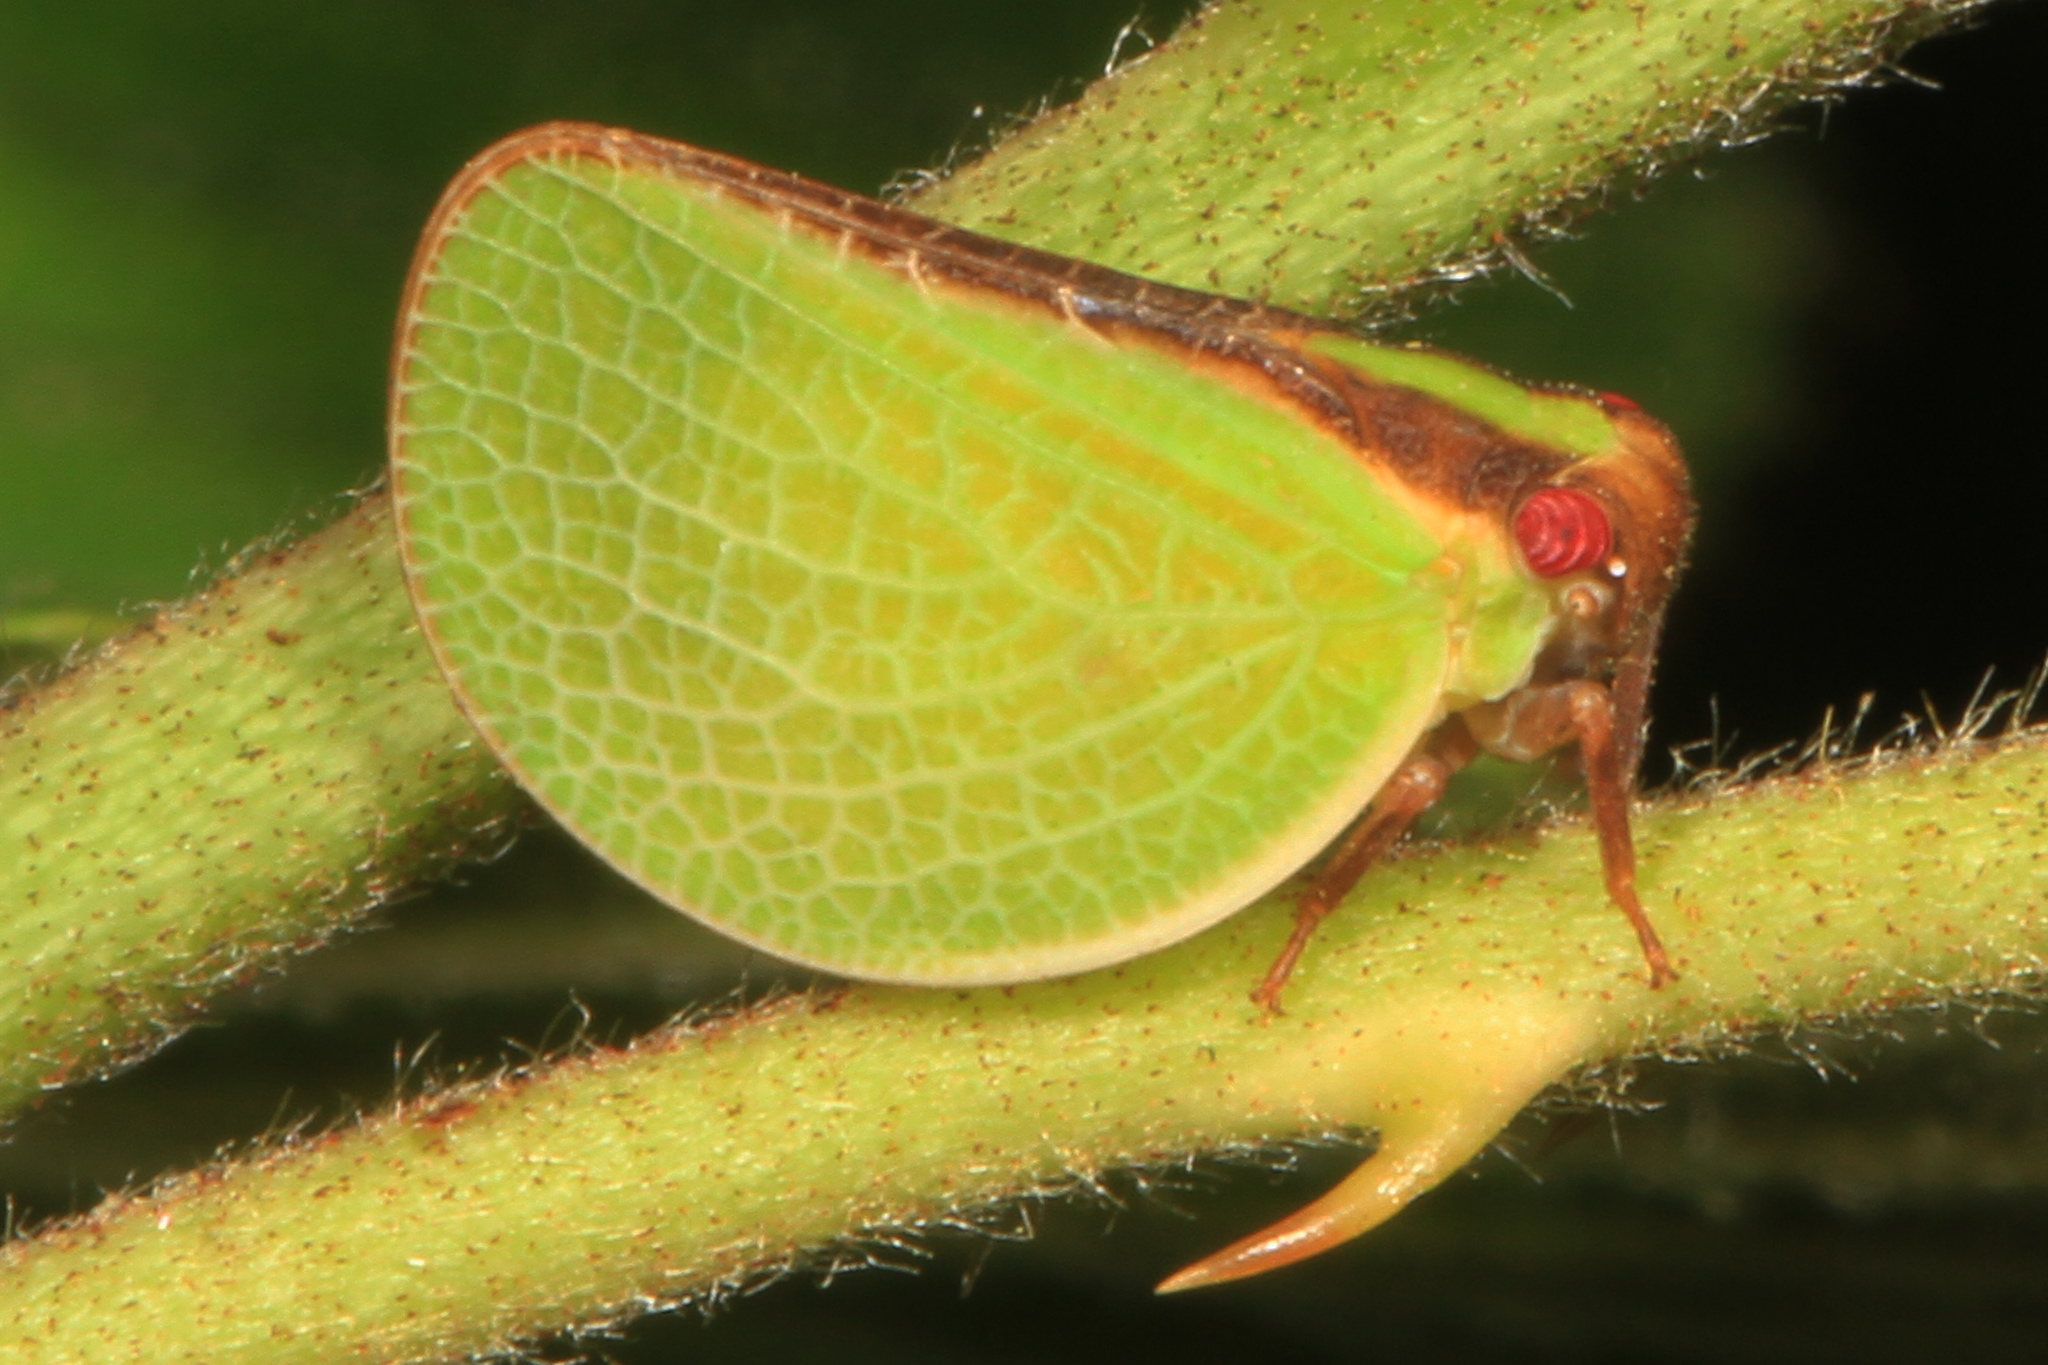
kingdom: Animalia
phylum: Arthropoda
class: Insecta
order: Hemiptera
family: Acanaloniidae
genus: Acanalonia
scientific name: Acanalonia bivittata
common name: Two-striped planthopper
